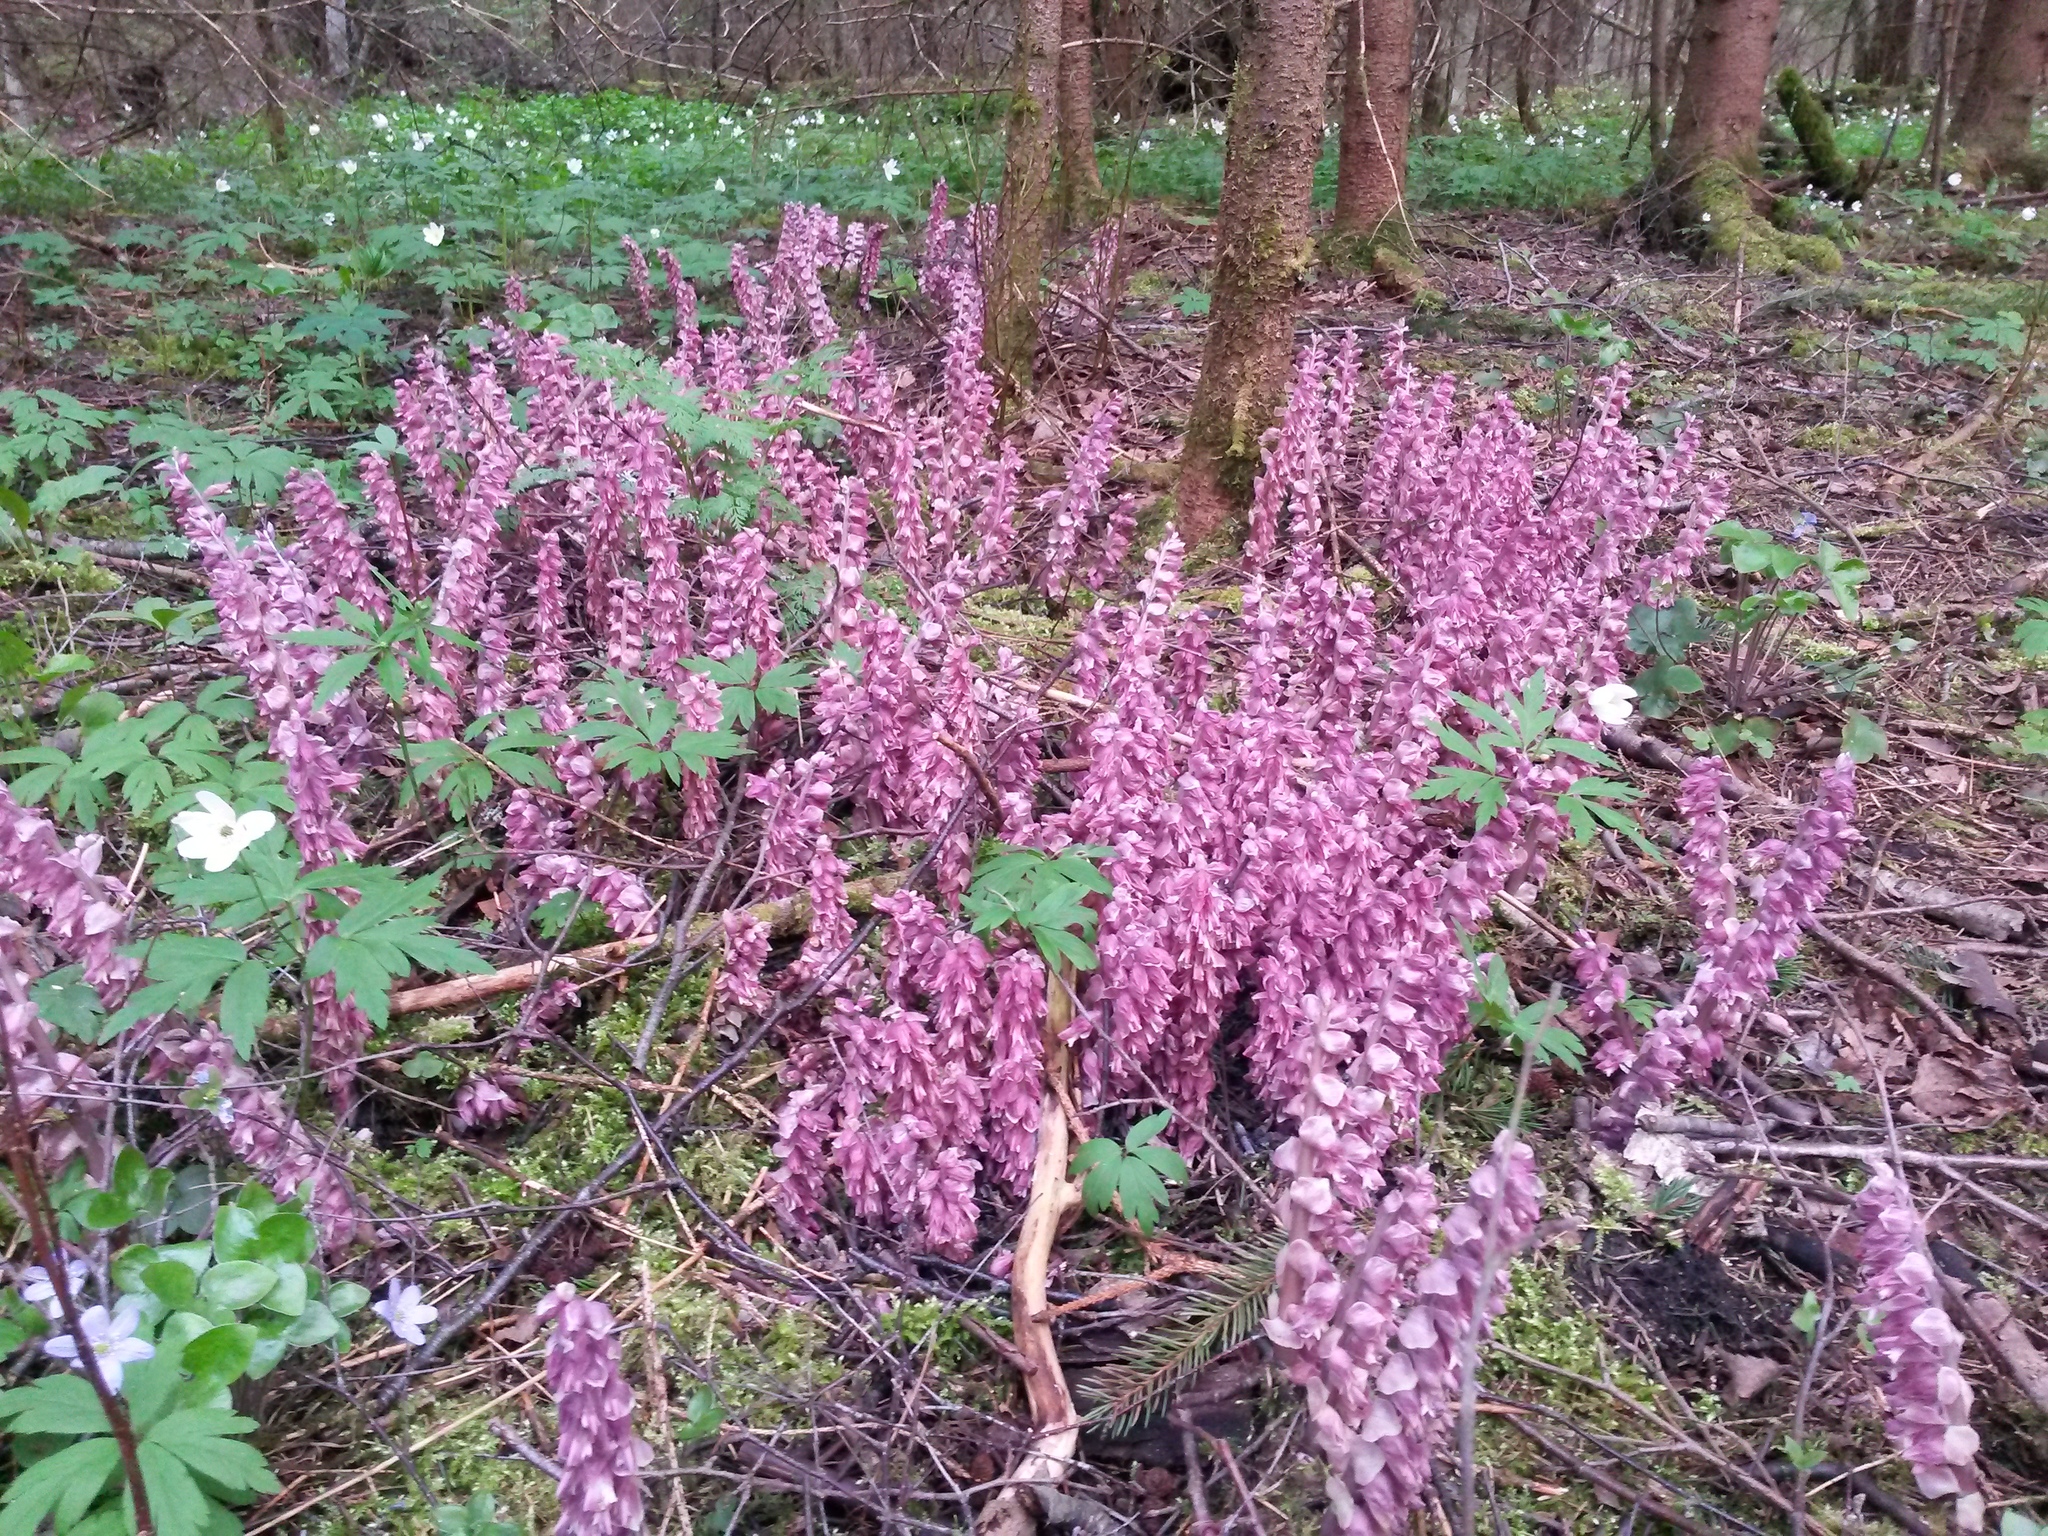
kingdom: Plantae
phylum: Tracheophyta
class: Magnoliopsida
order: Lamiales
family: Orobanchaceae
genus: Lathraea
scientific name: Lathraea squamaria
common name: Toothwort
